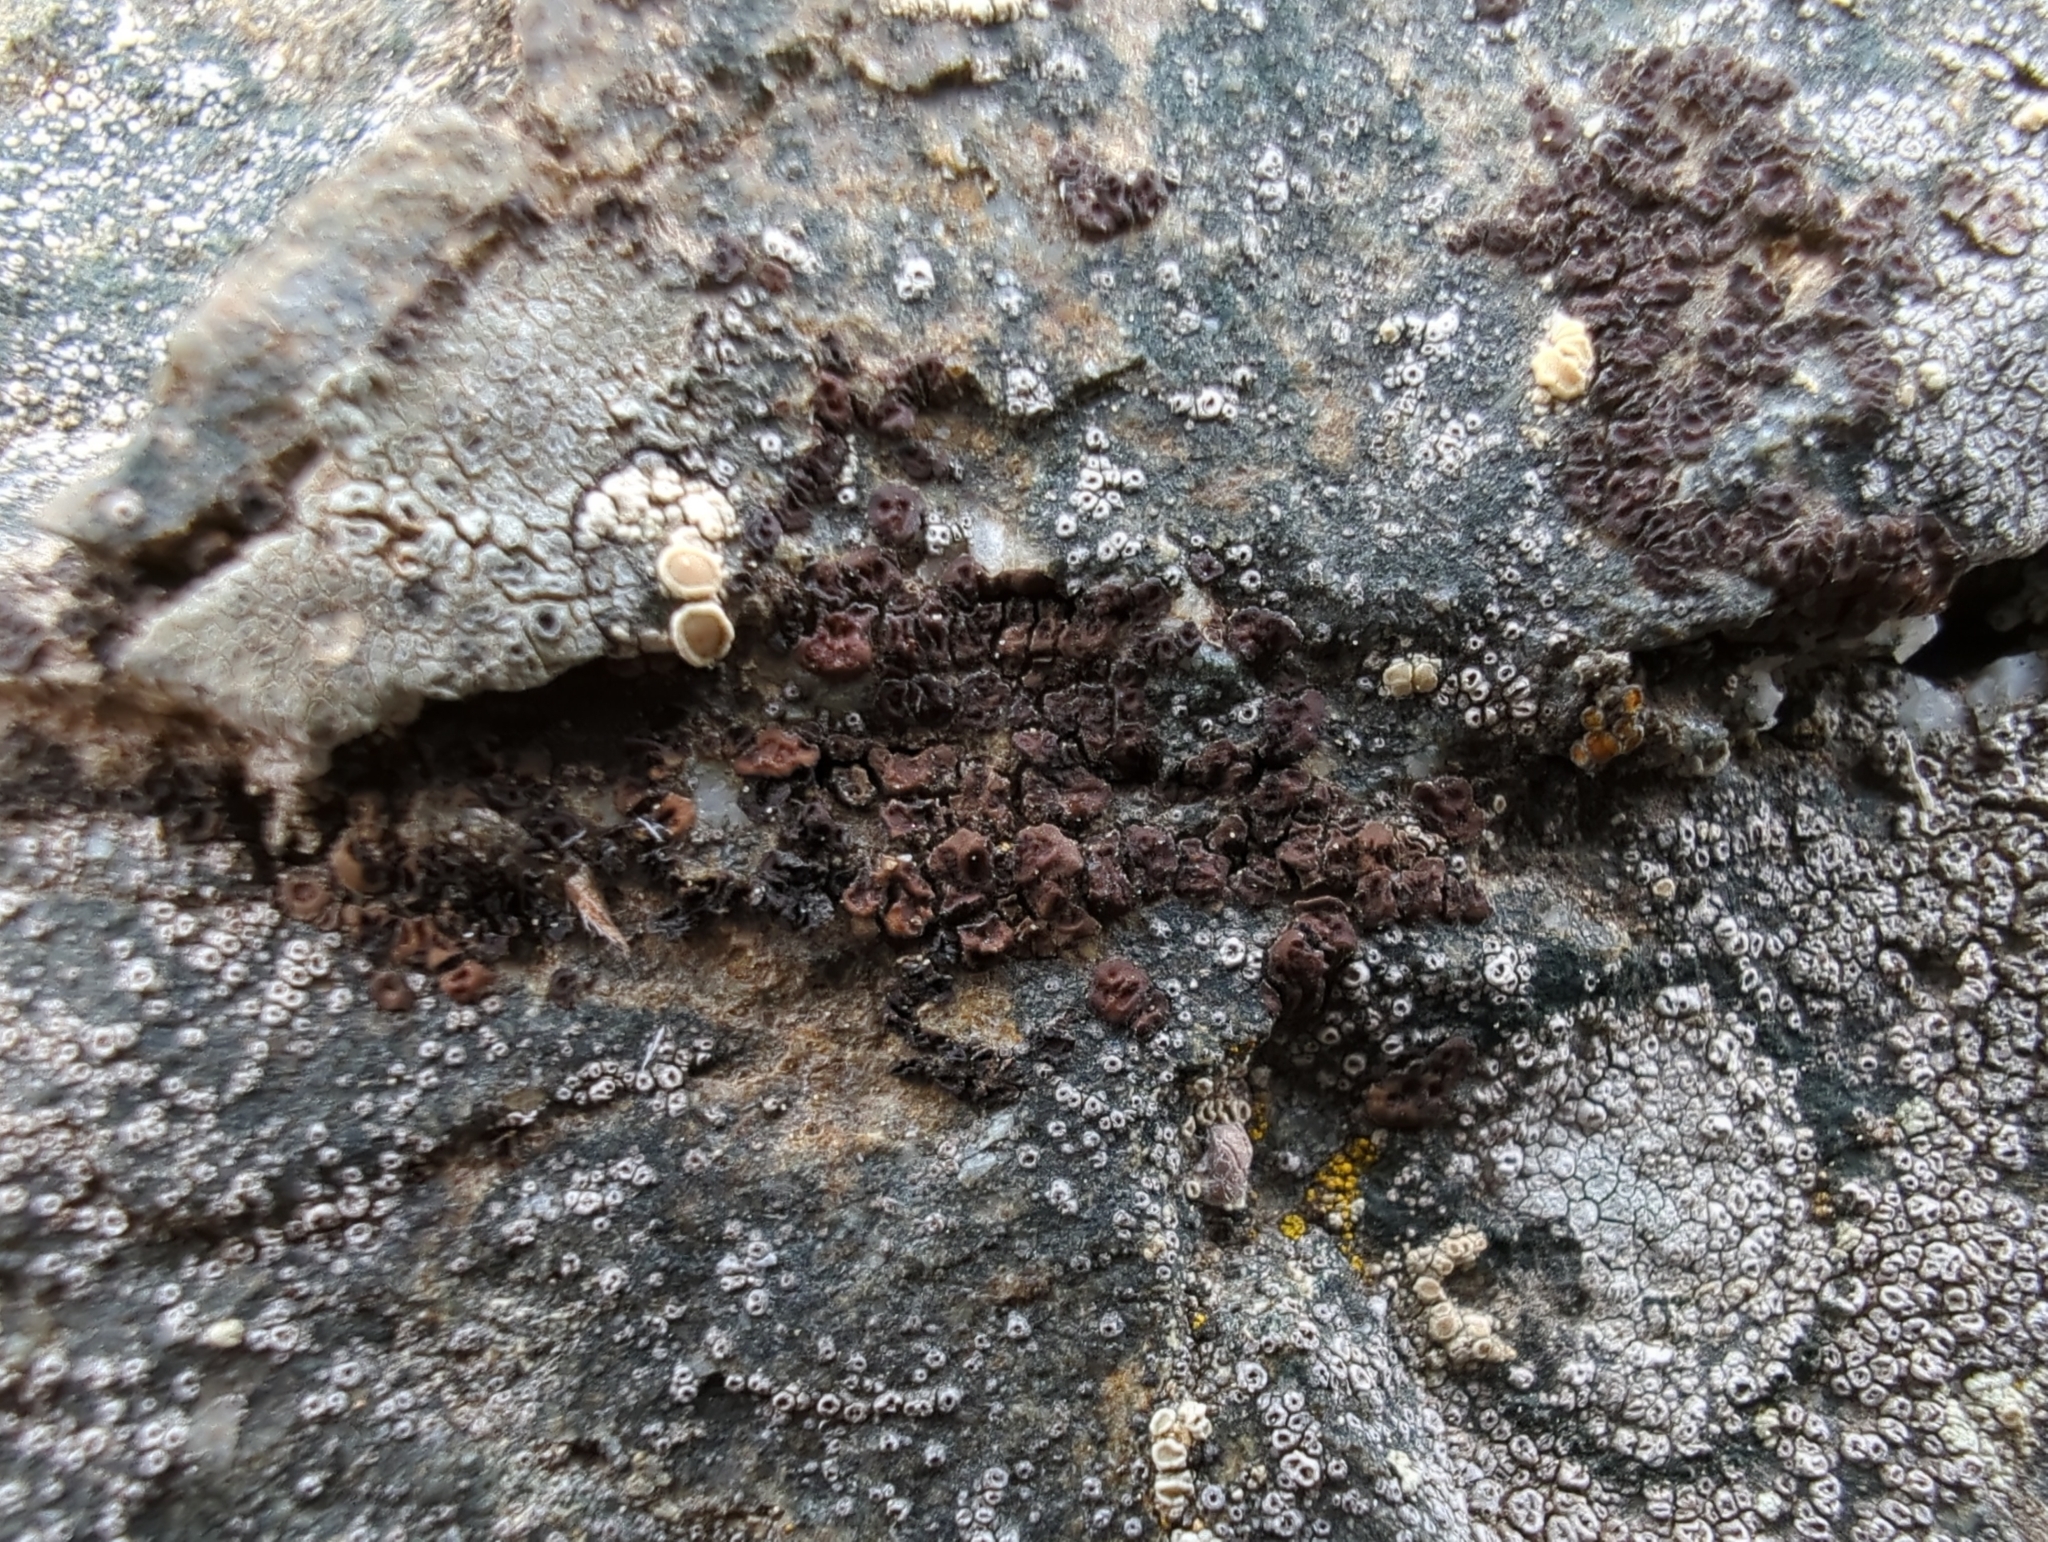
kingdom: Fungi
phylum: Ascomycota
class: Lecanoromycetes
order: Acarosporales
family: Acarosporaceae
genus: Acarospora
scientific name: Acarospora fuscata
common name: Brown cobblestone lichen
